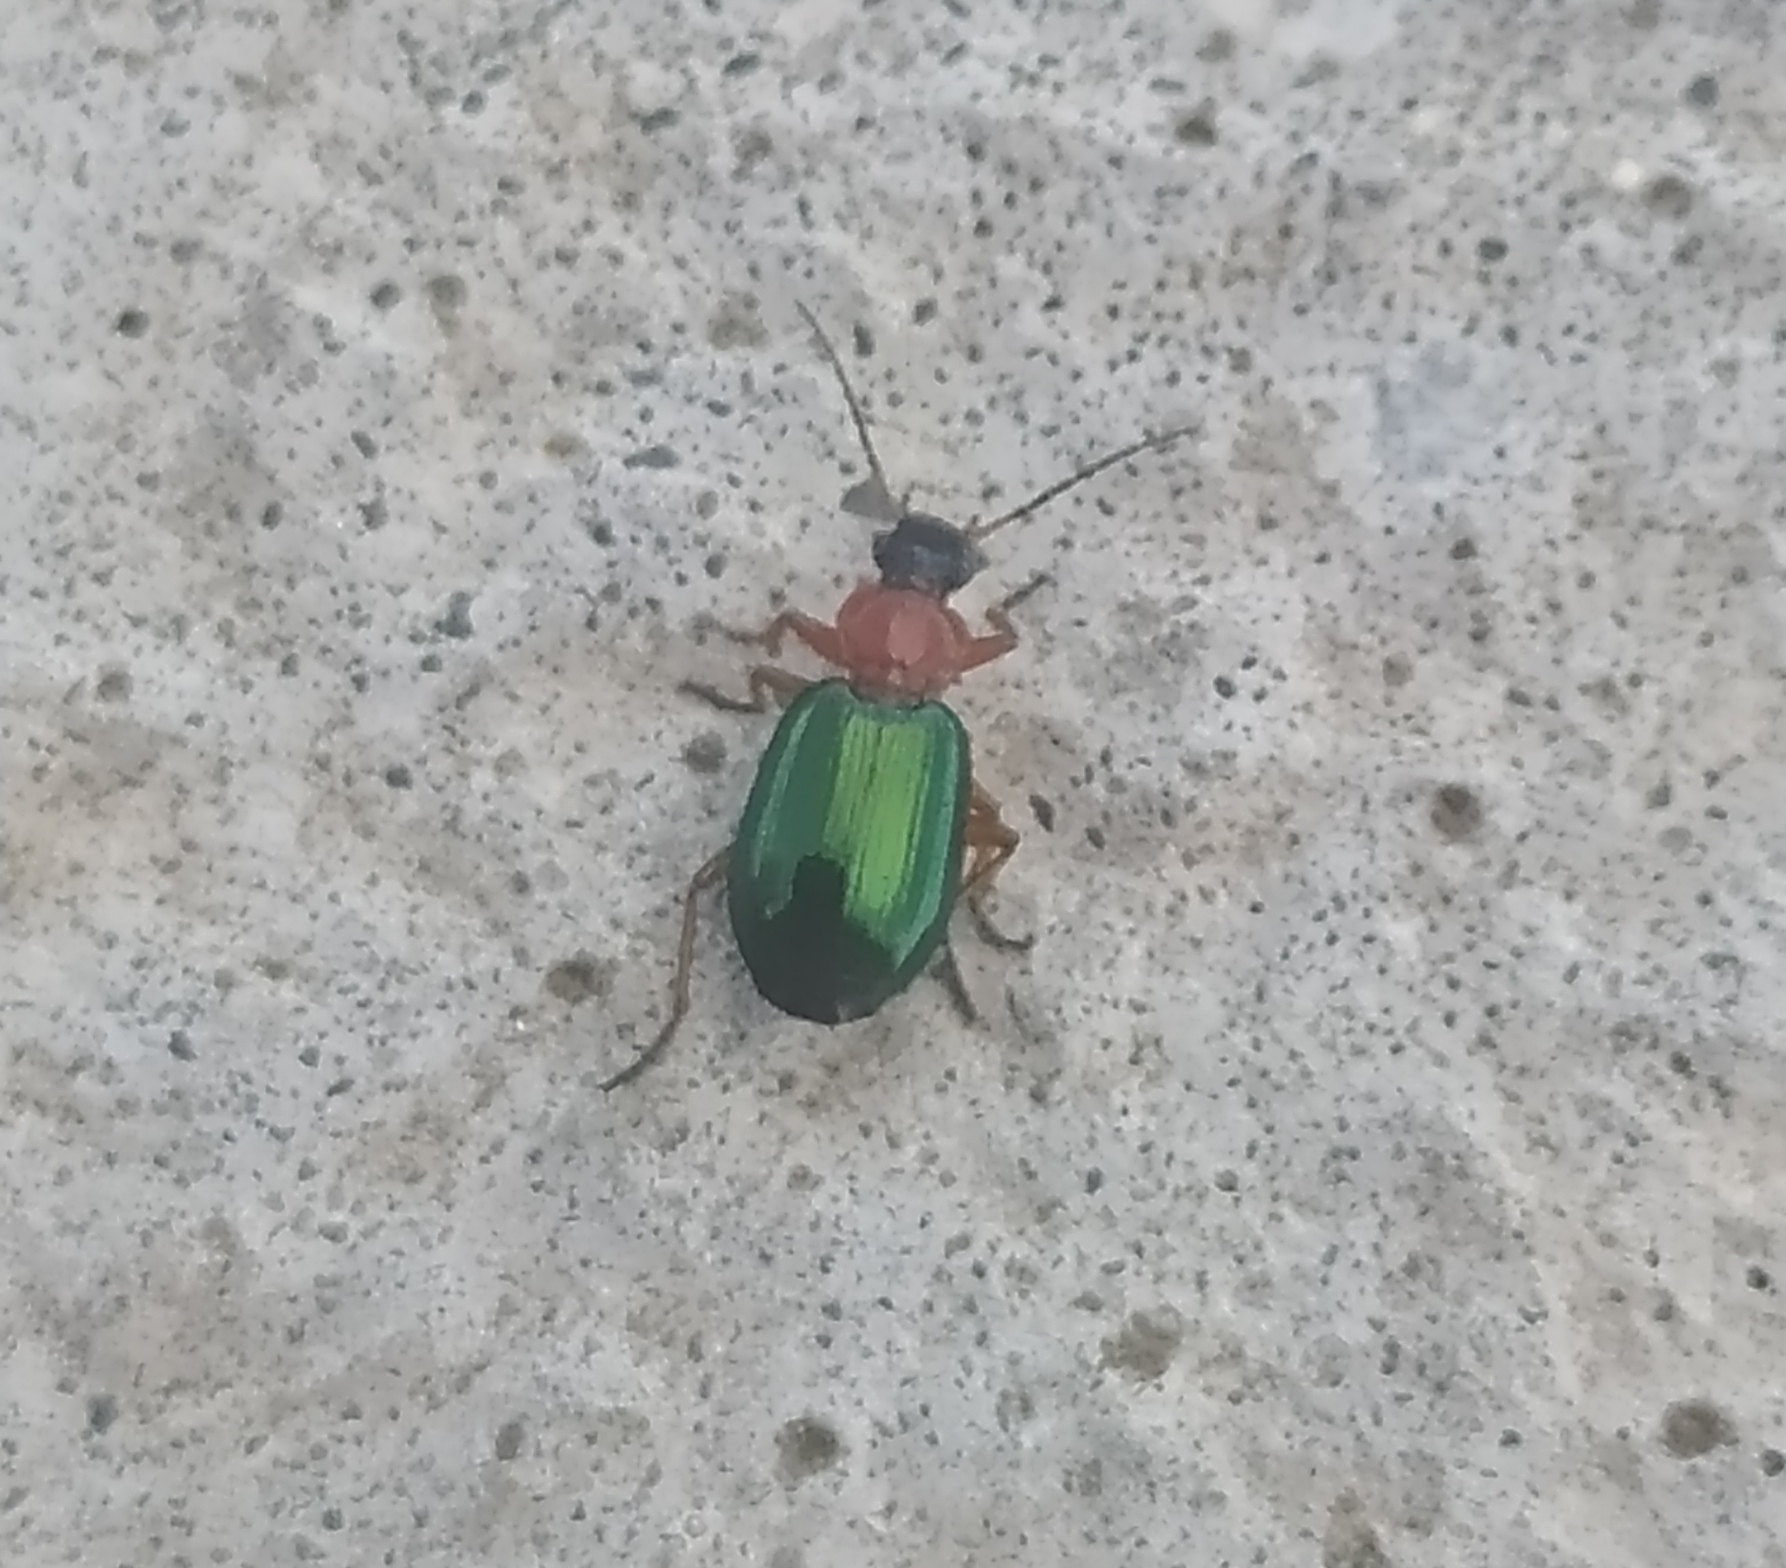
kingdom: Animalia
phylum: Arthropoda
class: Insecta
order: Coleoptera
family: Carabidae
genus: Lebia
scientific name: Lebia chlorocephala
